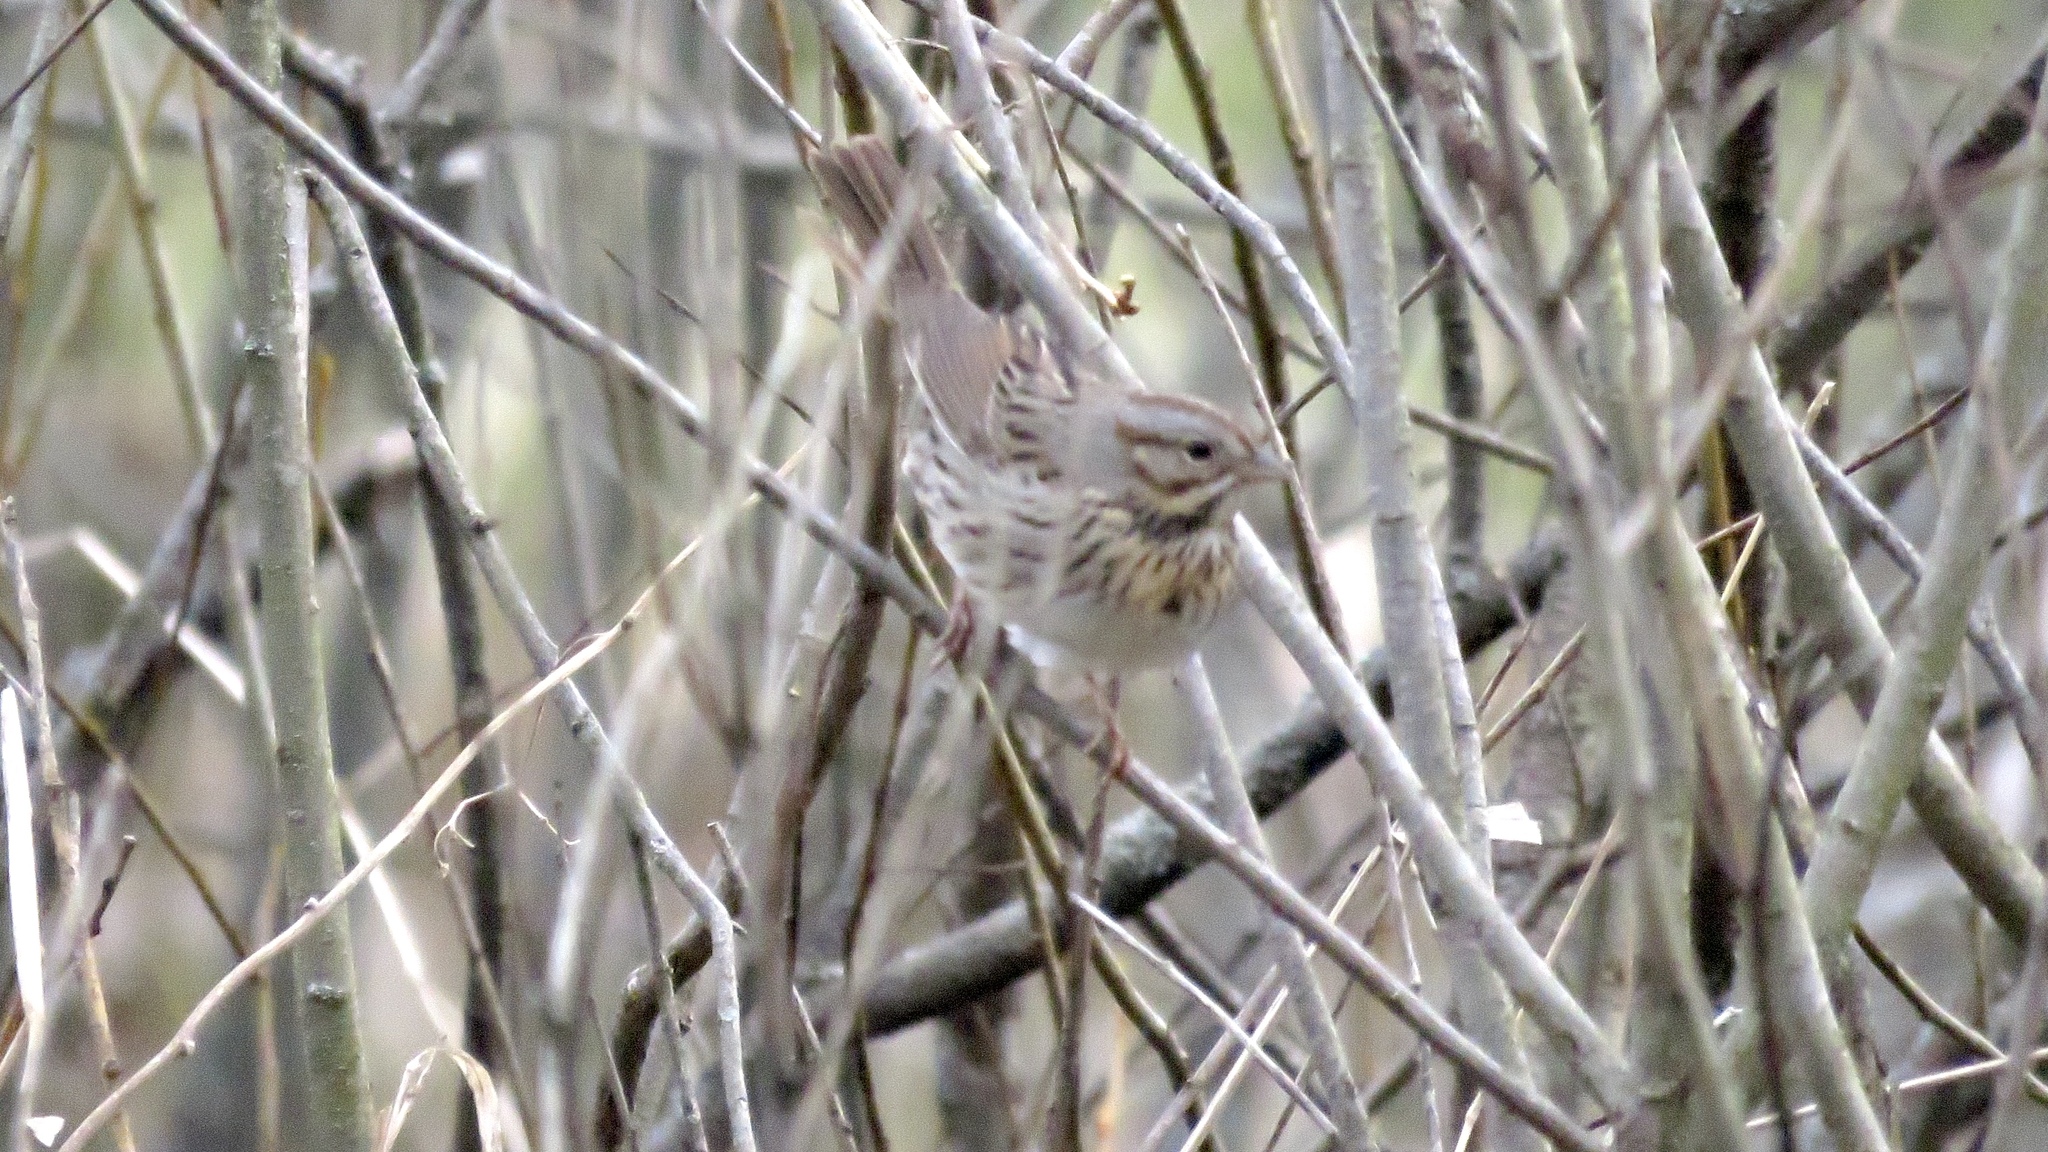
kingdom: Animalia
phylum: Chordata
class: Aves
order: Passeriformes
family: Passerellidae
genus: Melospiza
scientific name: Melospiza lincolnii
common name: Lincoln's sparrow
